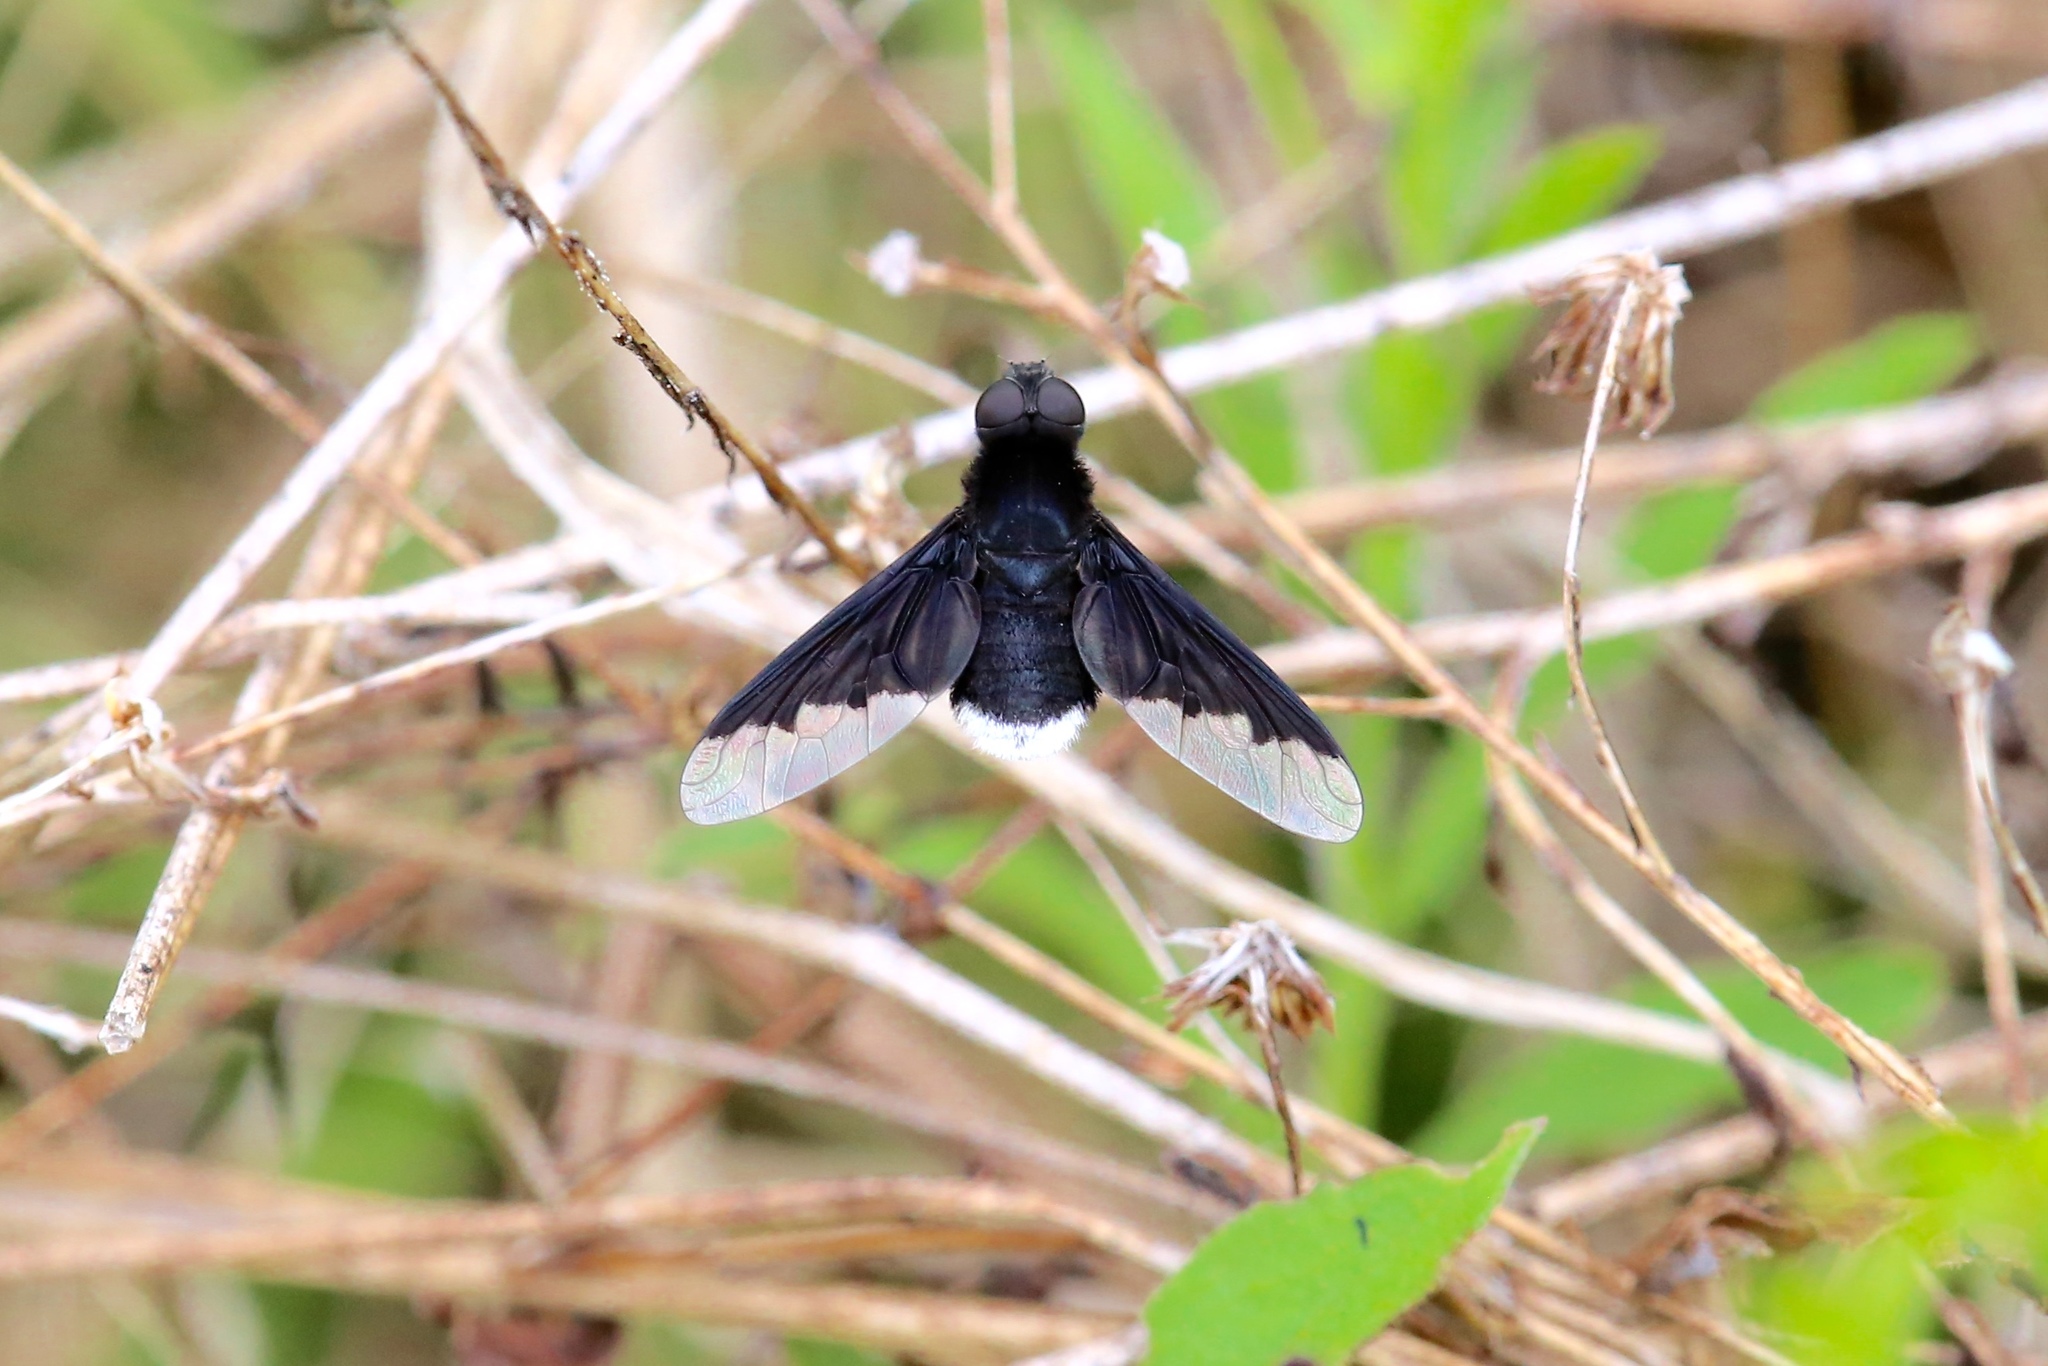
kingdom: Animalia
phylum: Arthropoda
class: Insecta
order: Diptera
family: Bombyliidae
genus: Anthrax
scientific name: Anthrax analis
